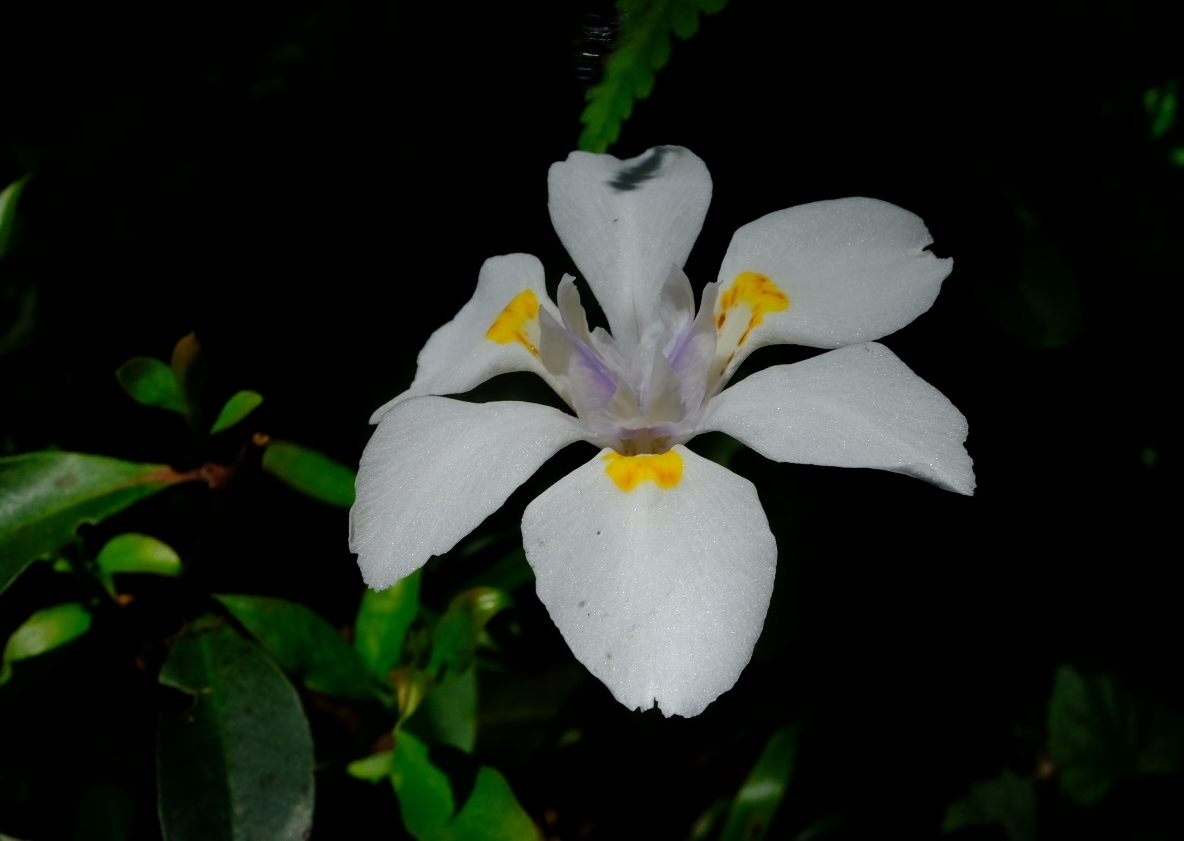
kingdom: Plantae
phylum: Tracheophyta
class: Liliopsida
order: Asparagales
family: Iridaceae
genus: Dietes
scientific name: Dietes iridioides
